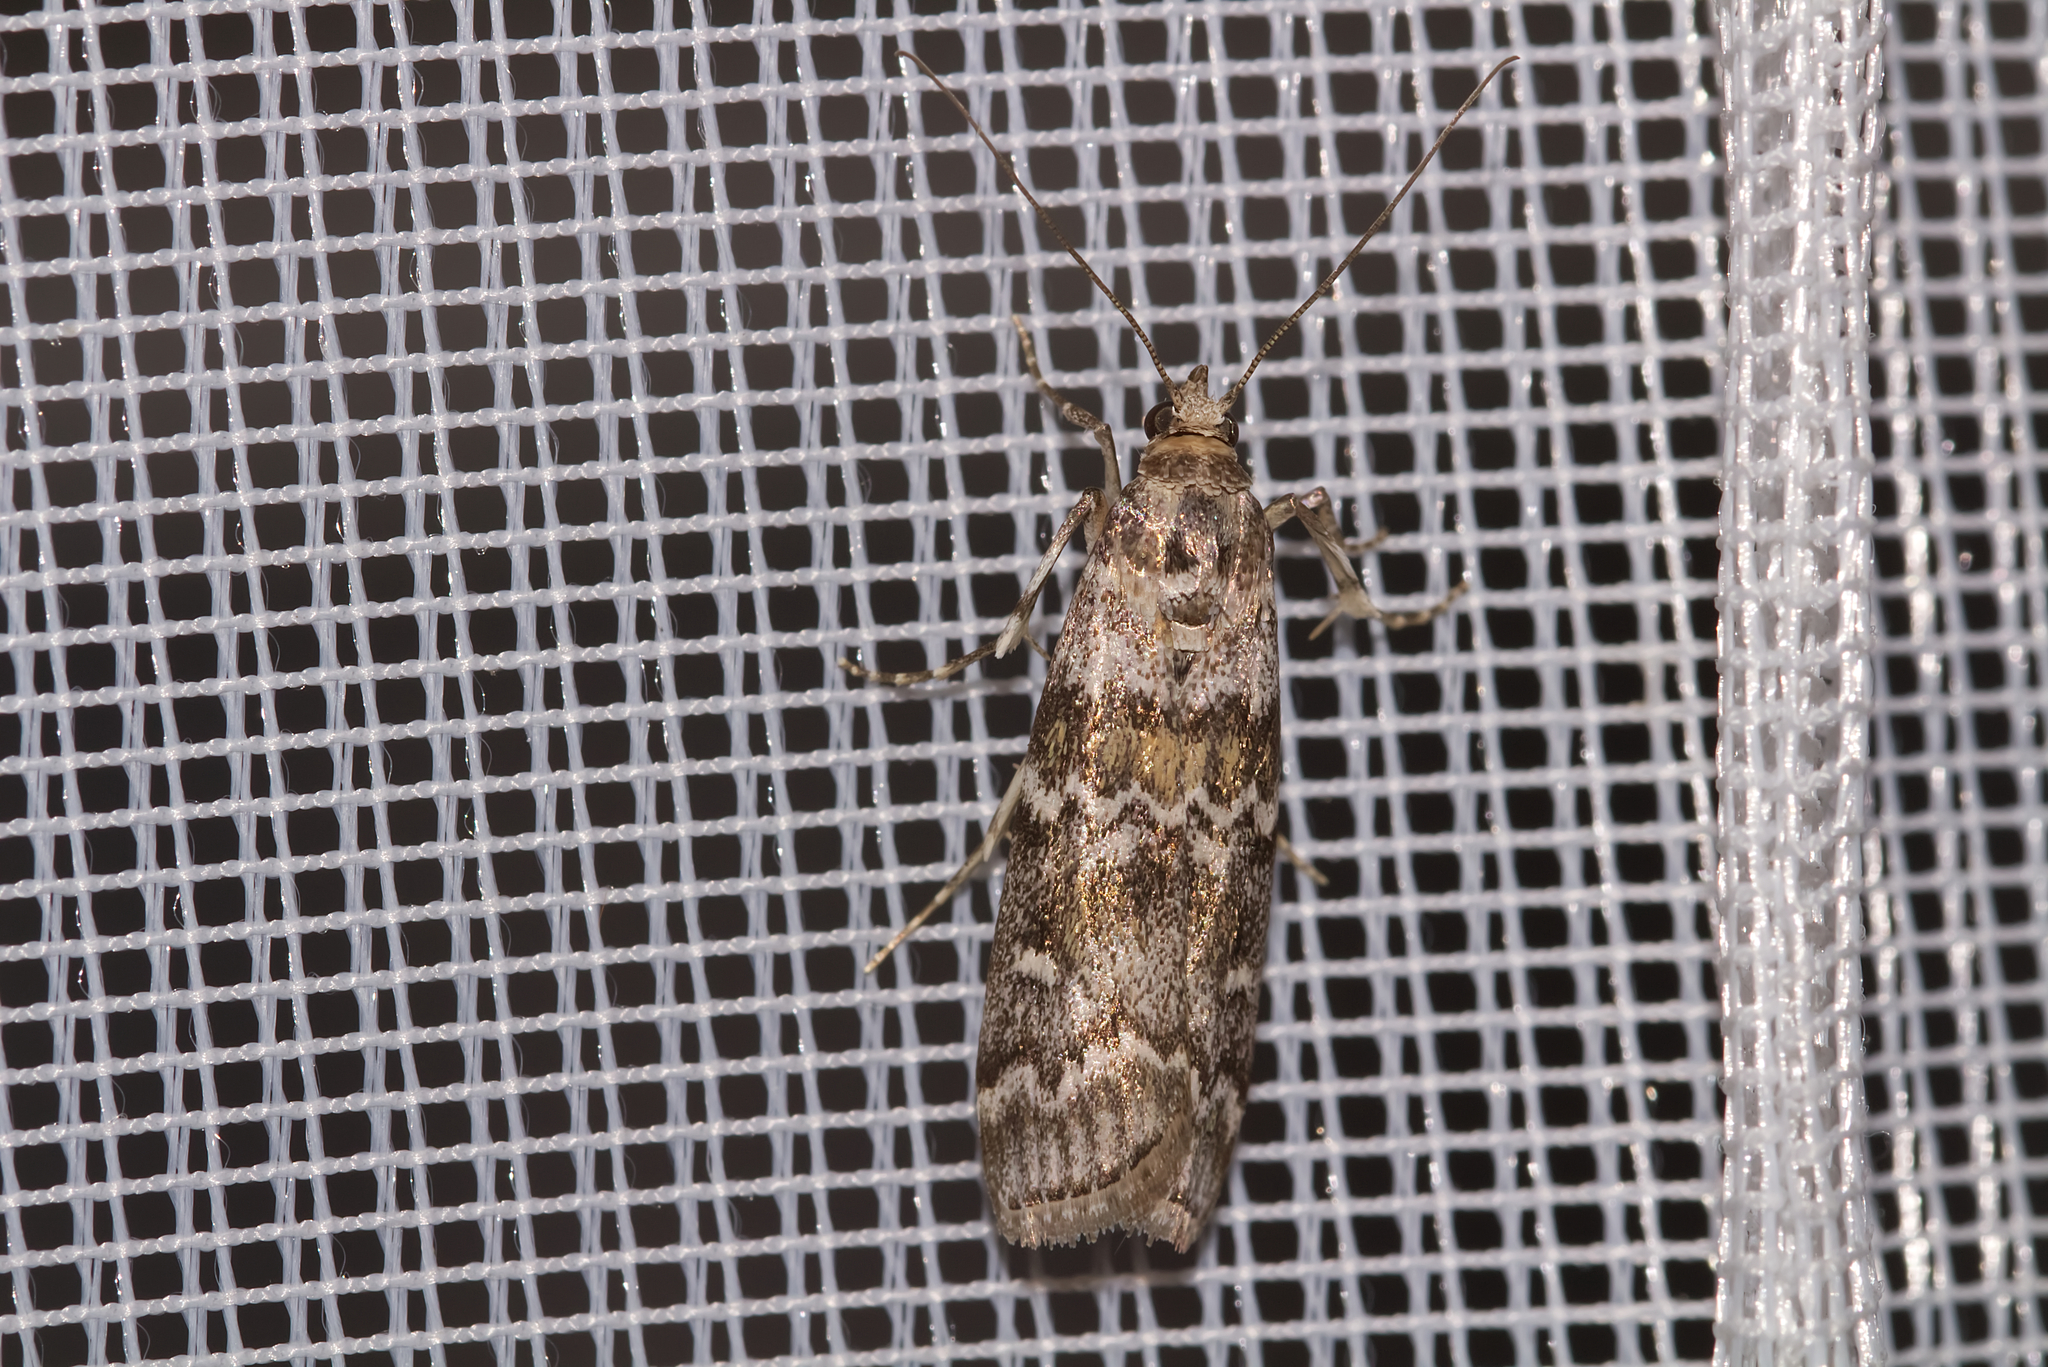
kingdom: Animalia
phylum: Arthropoda
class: Insecta
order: Lepidoptera
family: Pyralidae
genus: Dioryctria
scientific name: Dioryctria abietella
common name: Dark pine knot-horn
